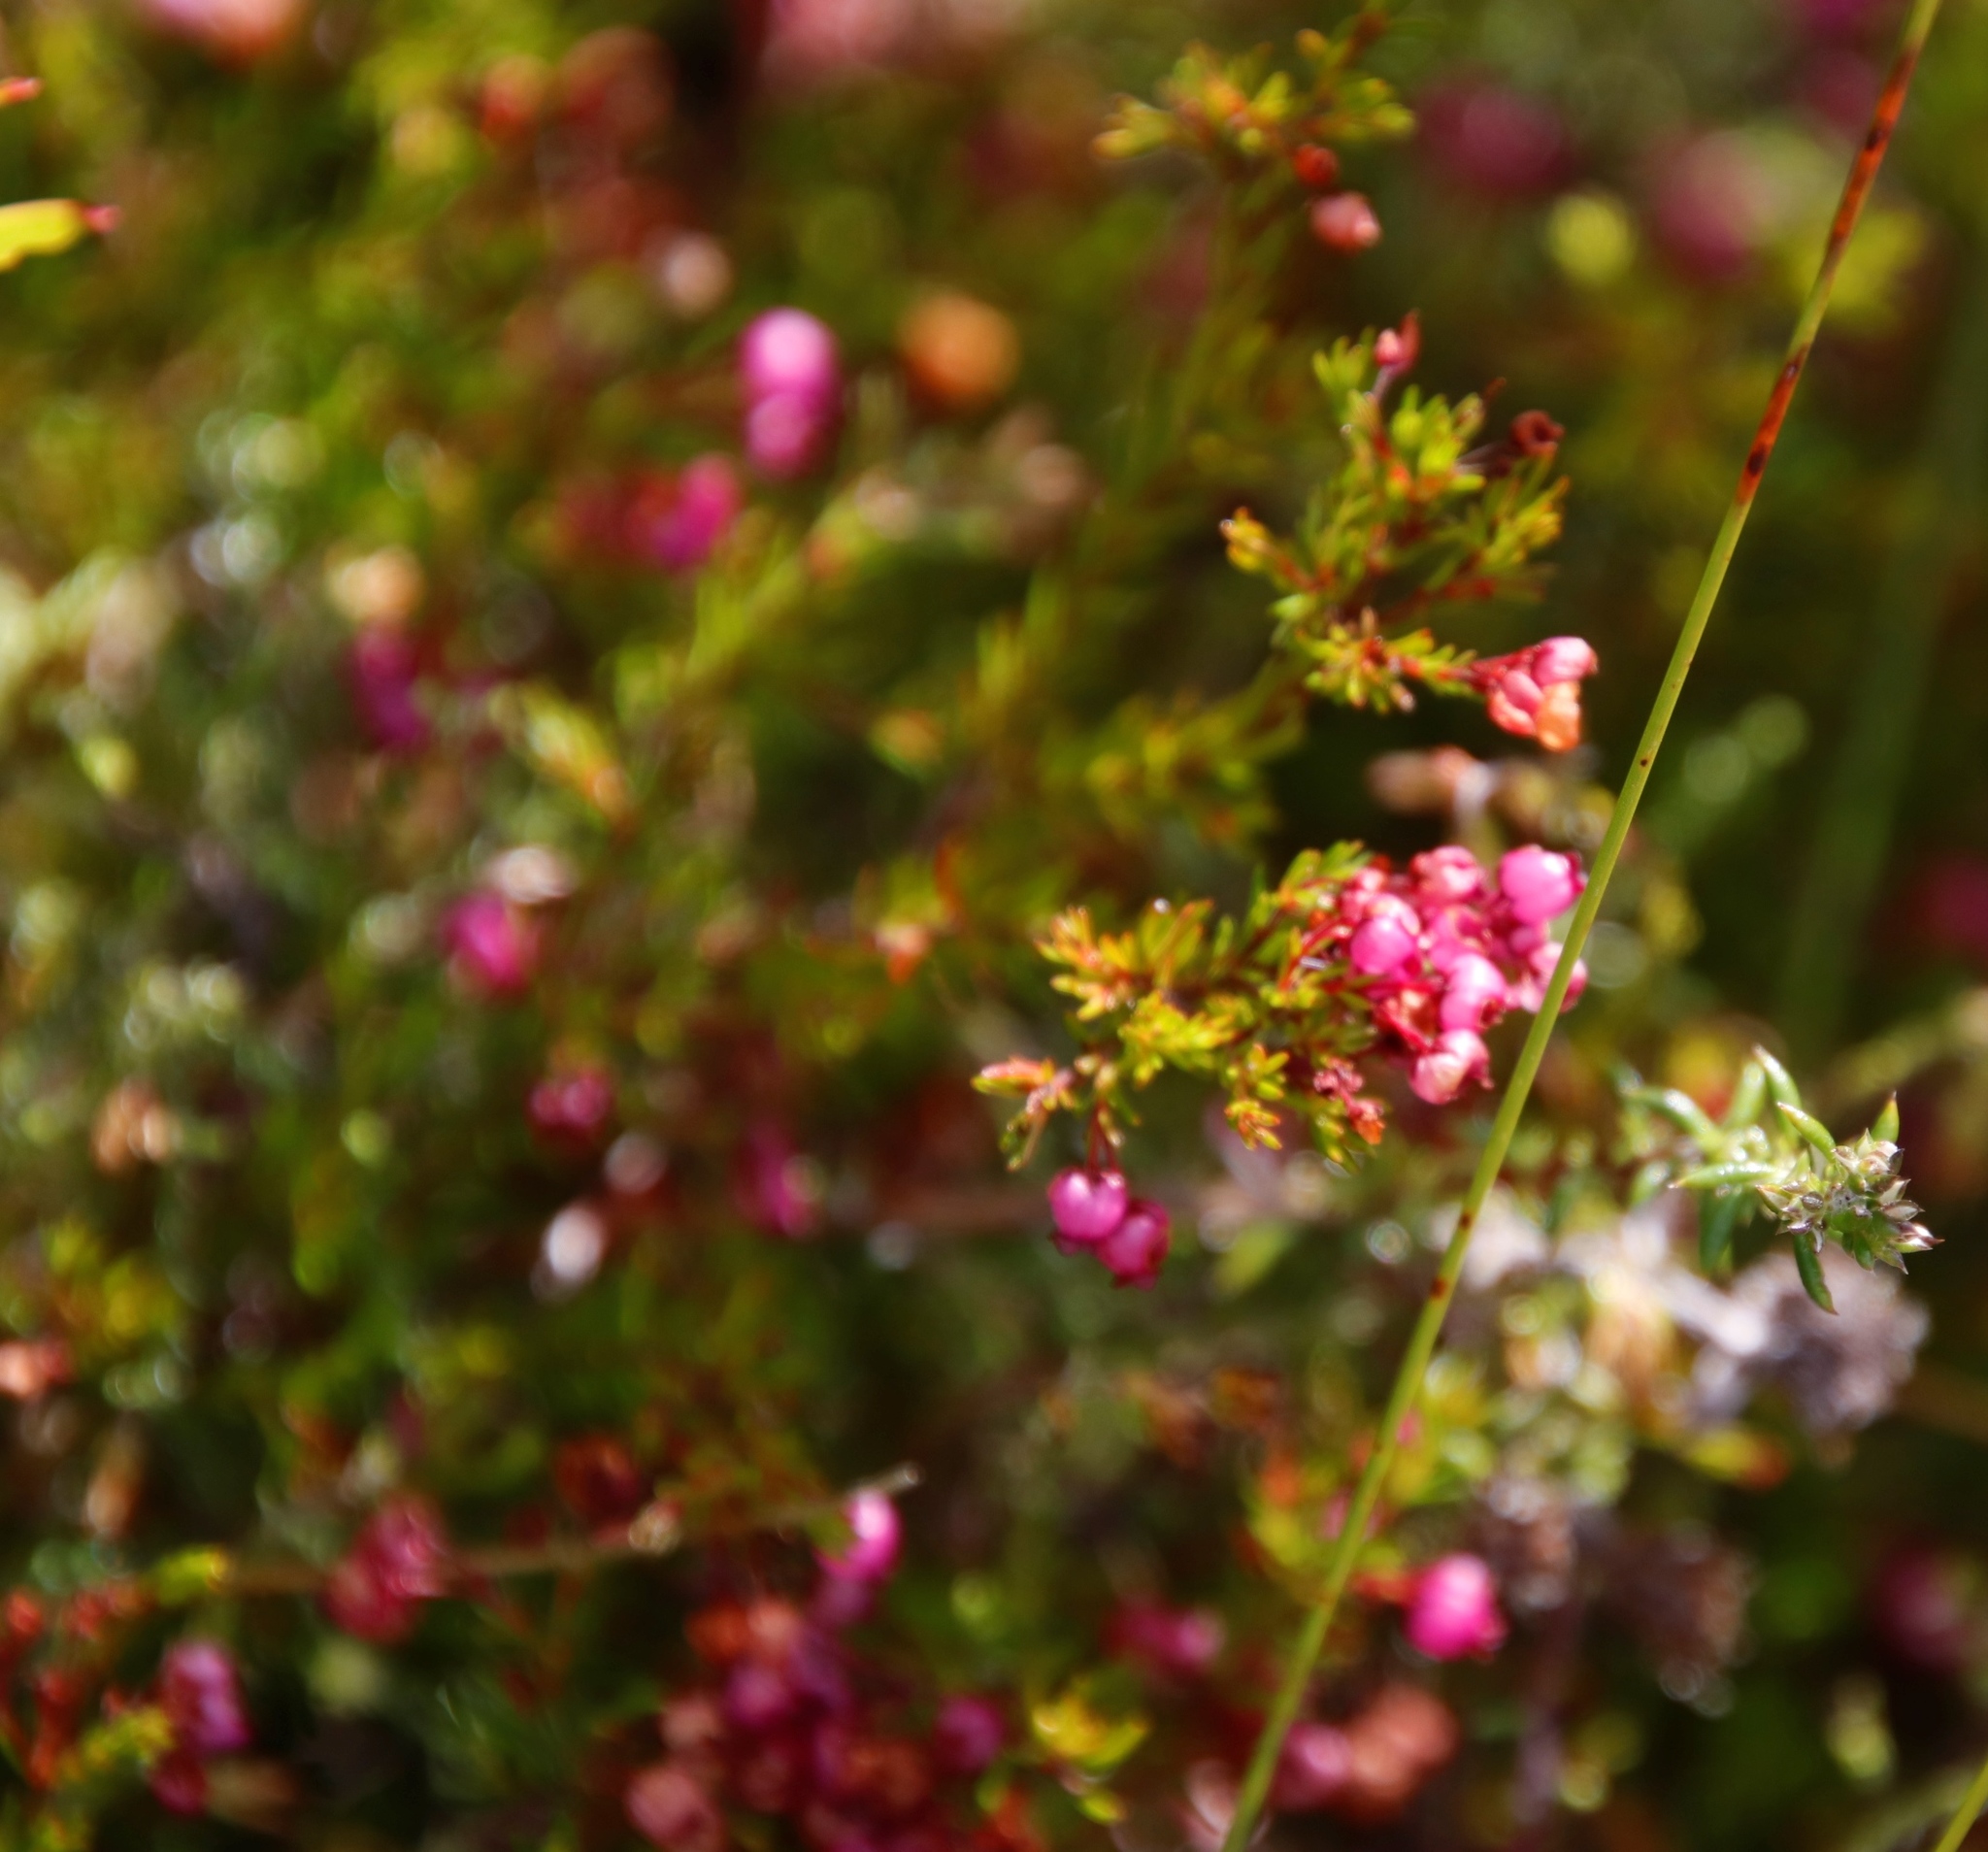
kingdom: Plantae
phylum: Tracheophyta
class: Magnoliopsida
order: Ericales
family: Ericaceae
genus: Erica
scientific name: Erica multumbellifera
